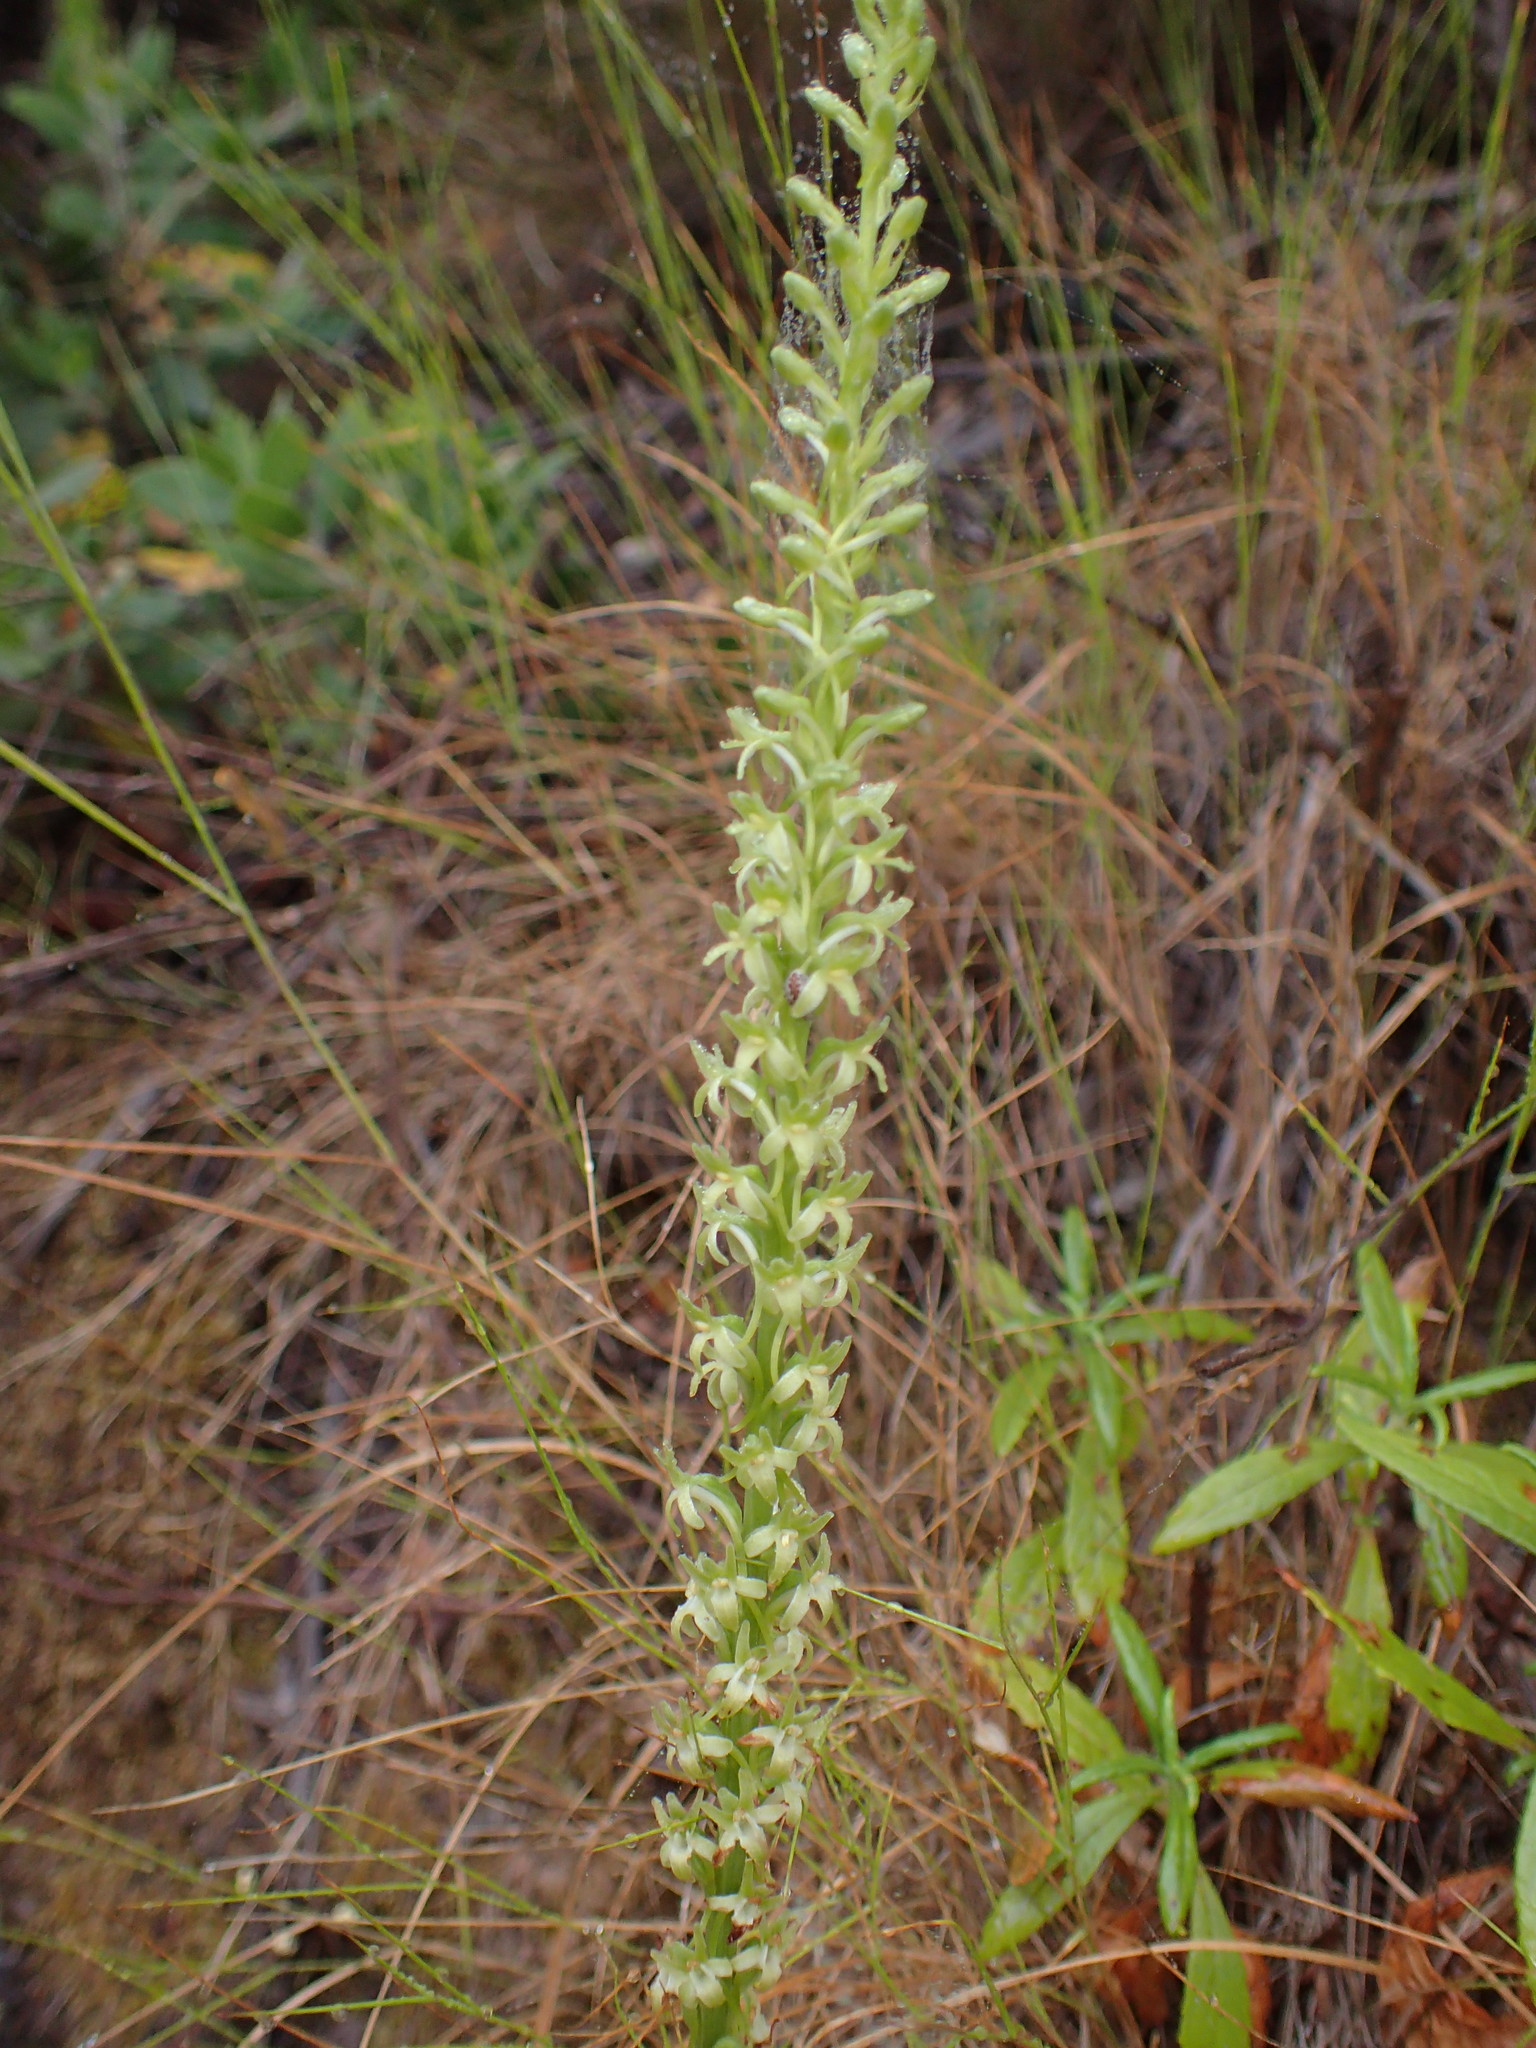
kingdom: Plantae
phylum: Tracheophyta
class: Liliopsida
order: Asparagales
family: Orchidaceae
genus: Platanthera
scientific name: Platanthera elongata
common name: Dense-flowered rein orchid
